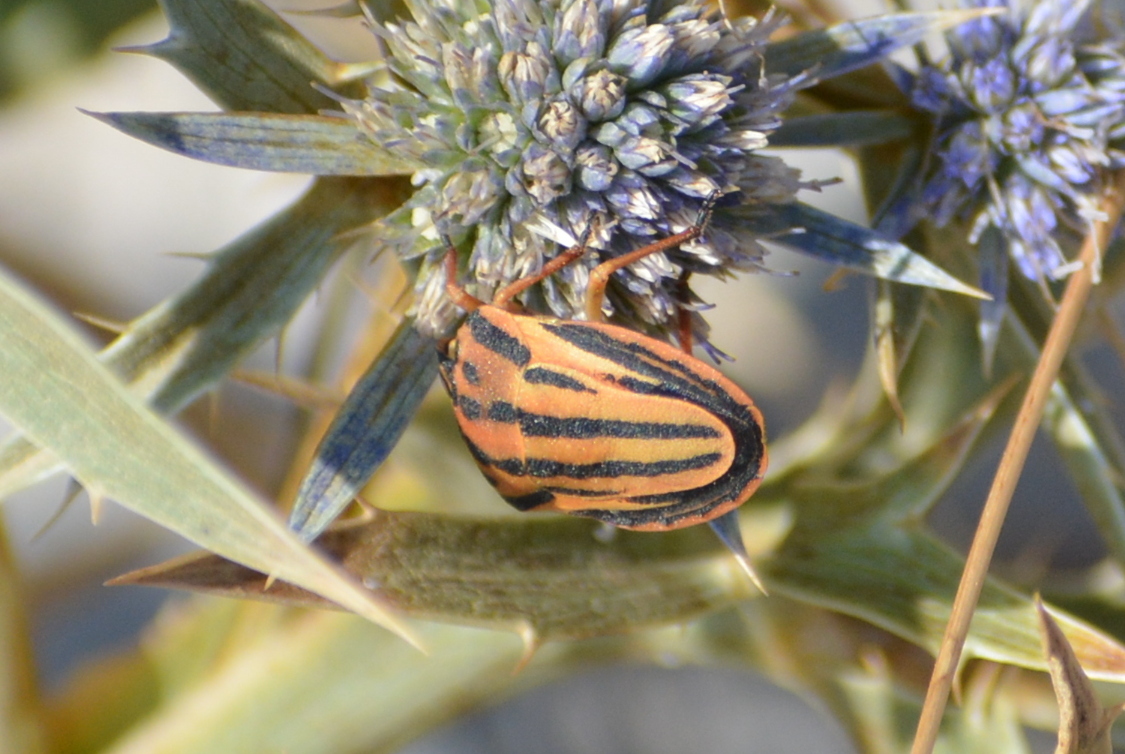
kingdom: Animalia
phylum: Arthropoda
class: Insecta
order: Hemiptera
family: Pentatomidae
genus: Graphosoma
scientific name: Graphosoma semipunctatum
